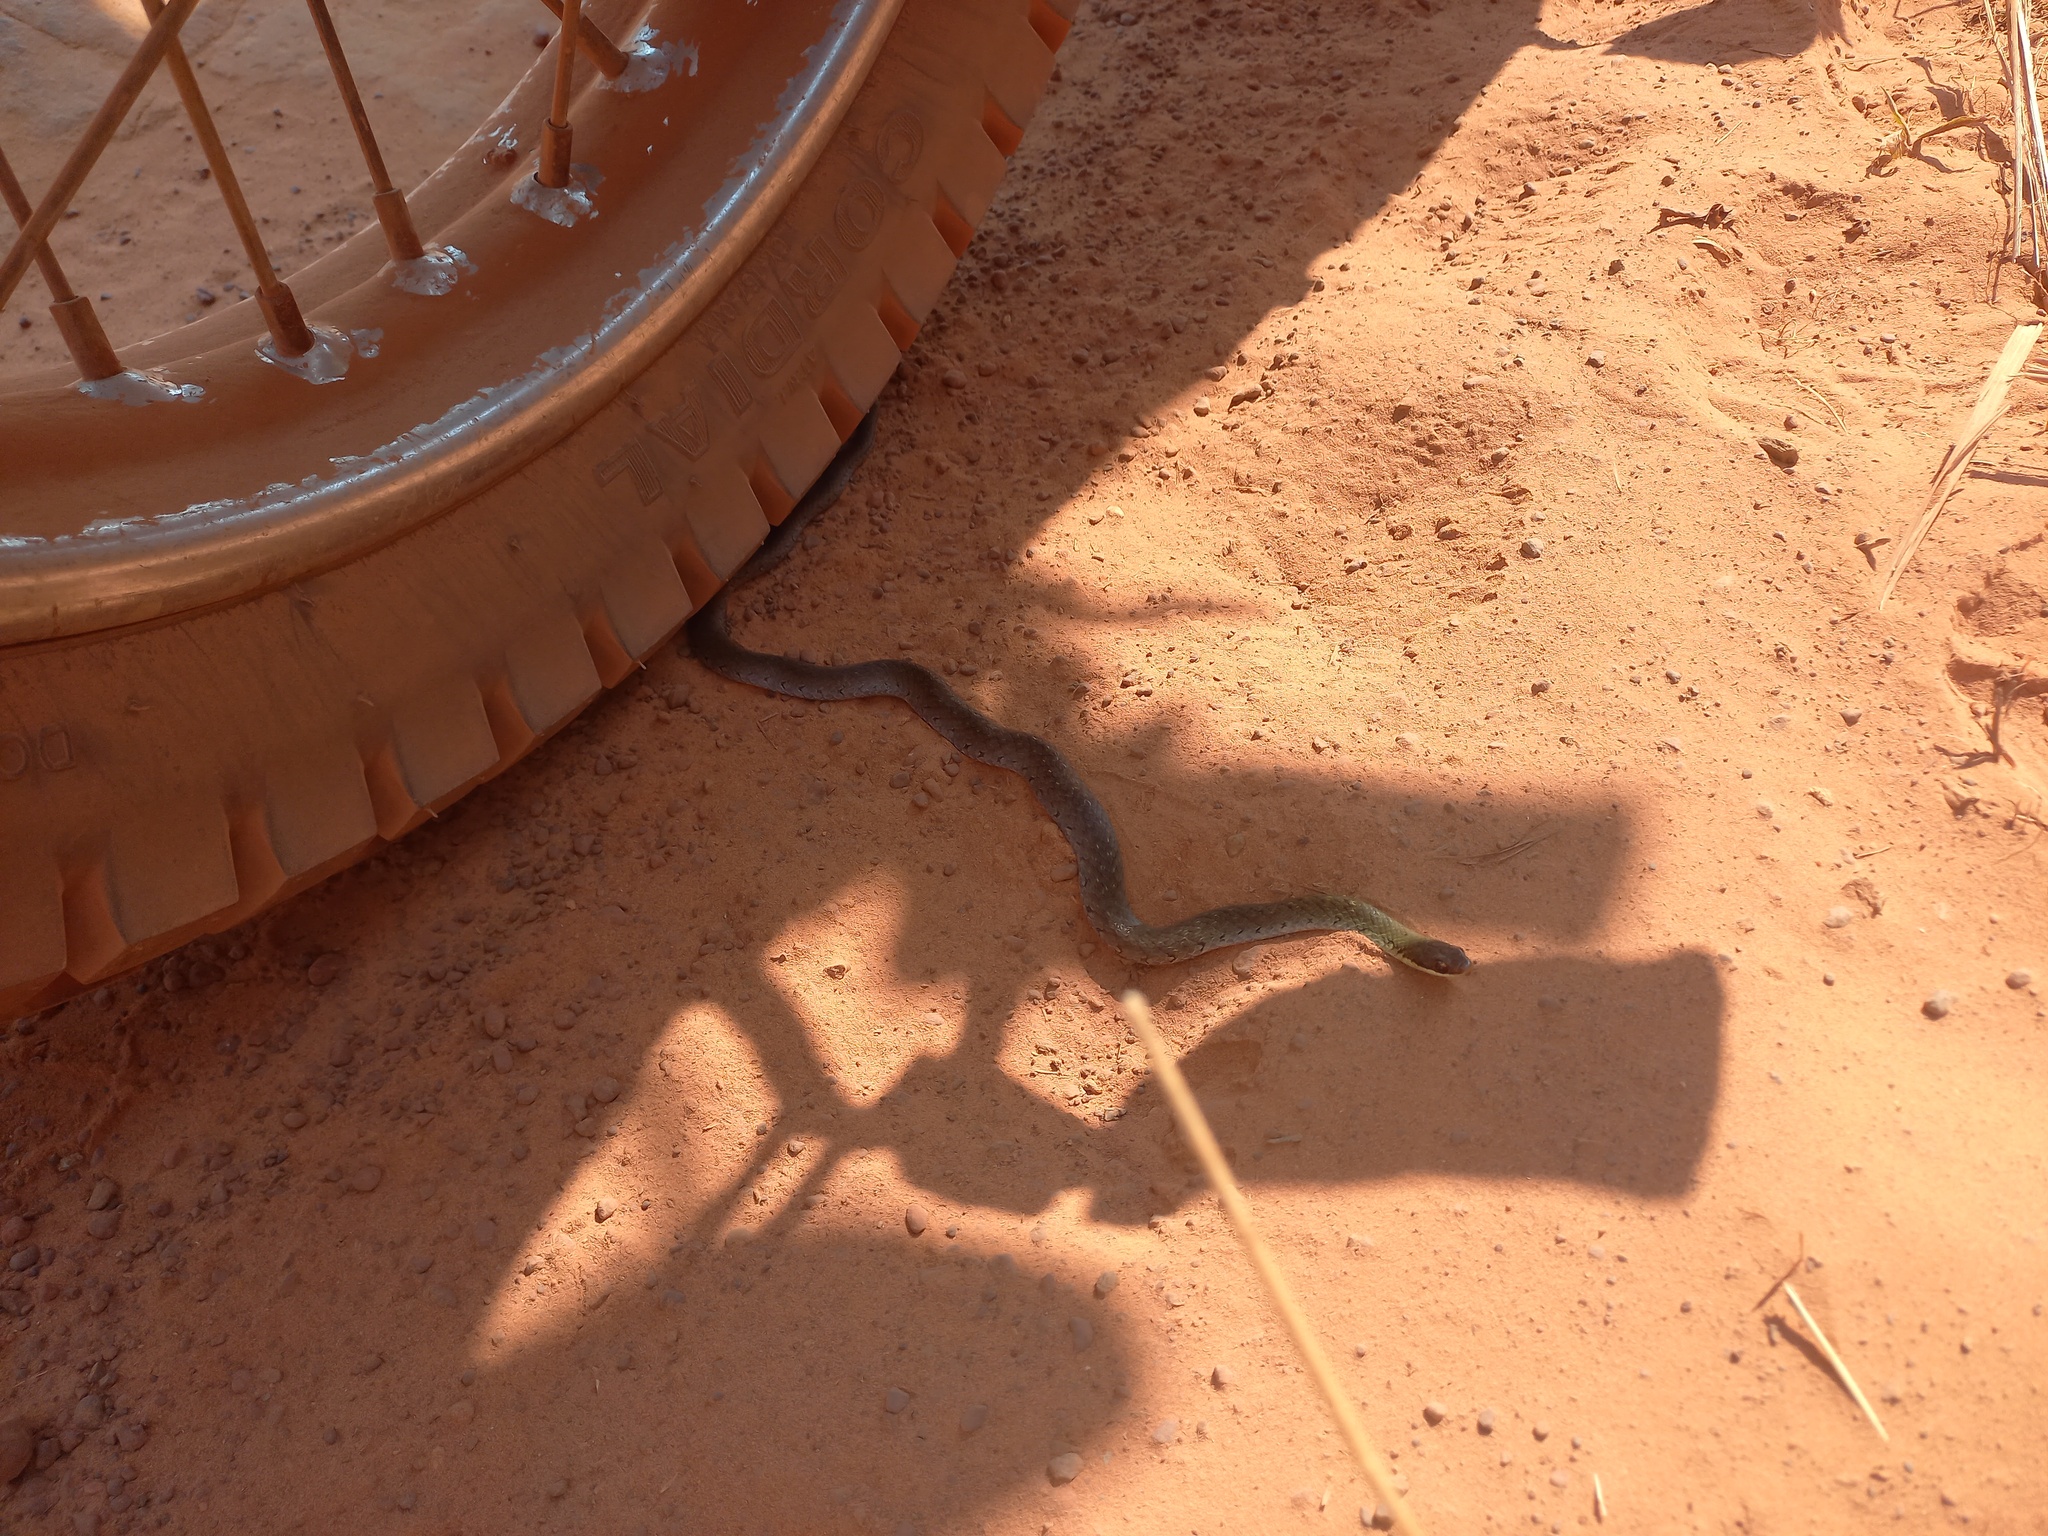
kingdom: Animalia
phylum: Chordata
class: Squamata
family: Colubridae
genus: Erythrolamprus
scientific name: Erythrolamprus reginae
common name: Royal ground snake
